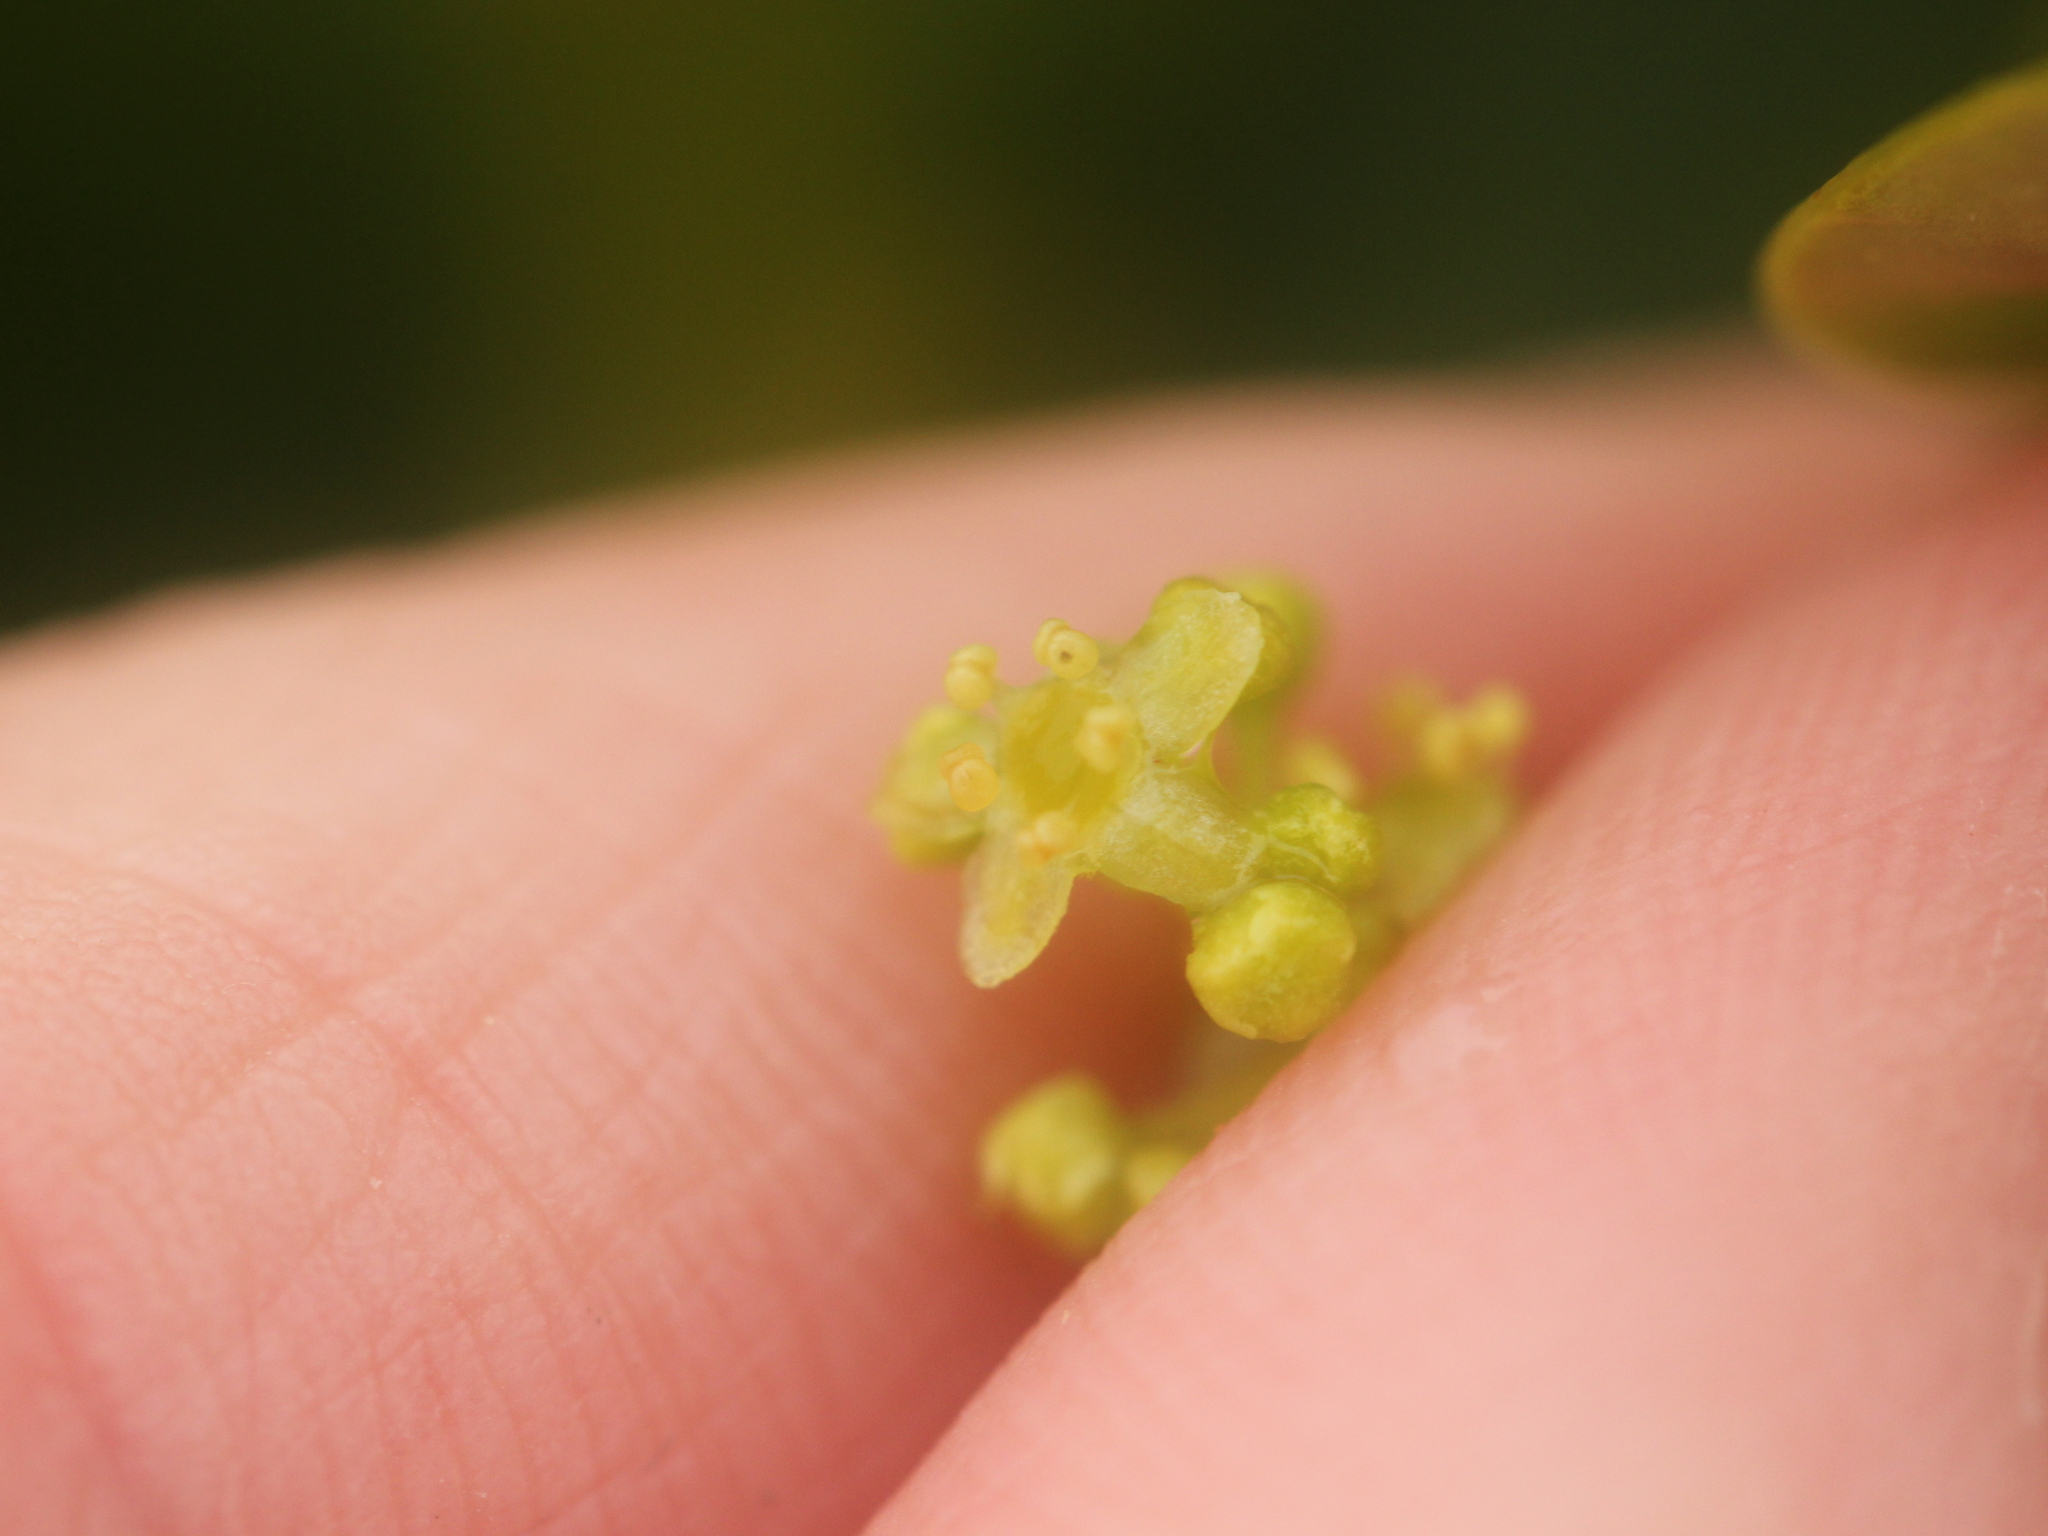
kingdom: Plantae
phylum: Tracheophyta
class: Magnoliopsida
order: Apiales
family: Griseliniaceae
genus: Griselinia
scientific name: Griselinia littoralis
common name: New zealand broadleaf
